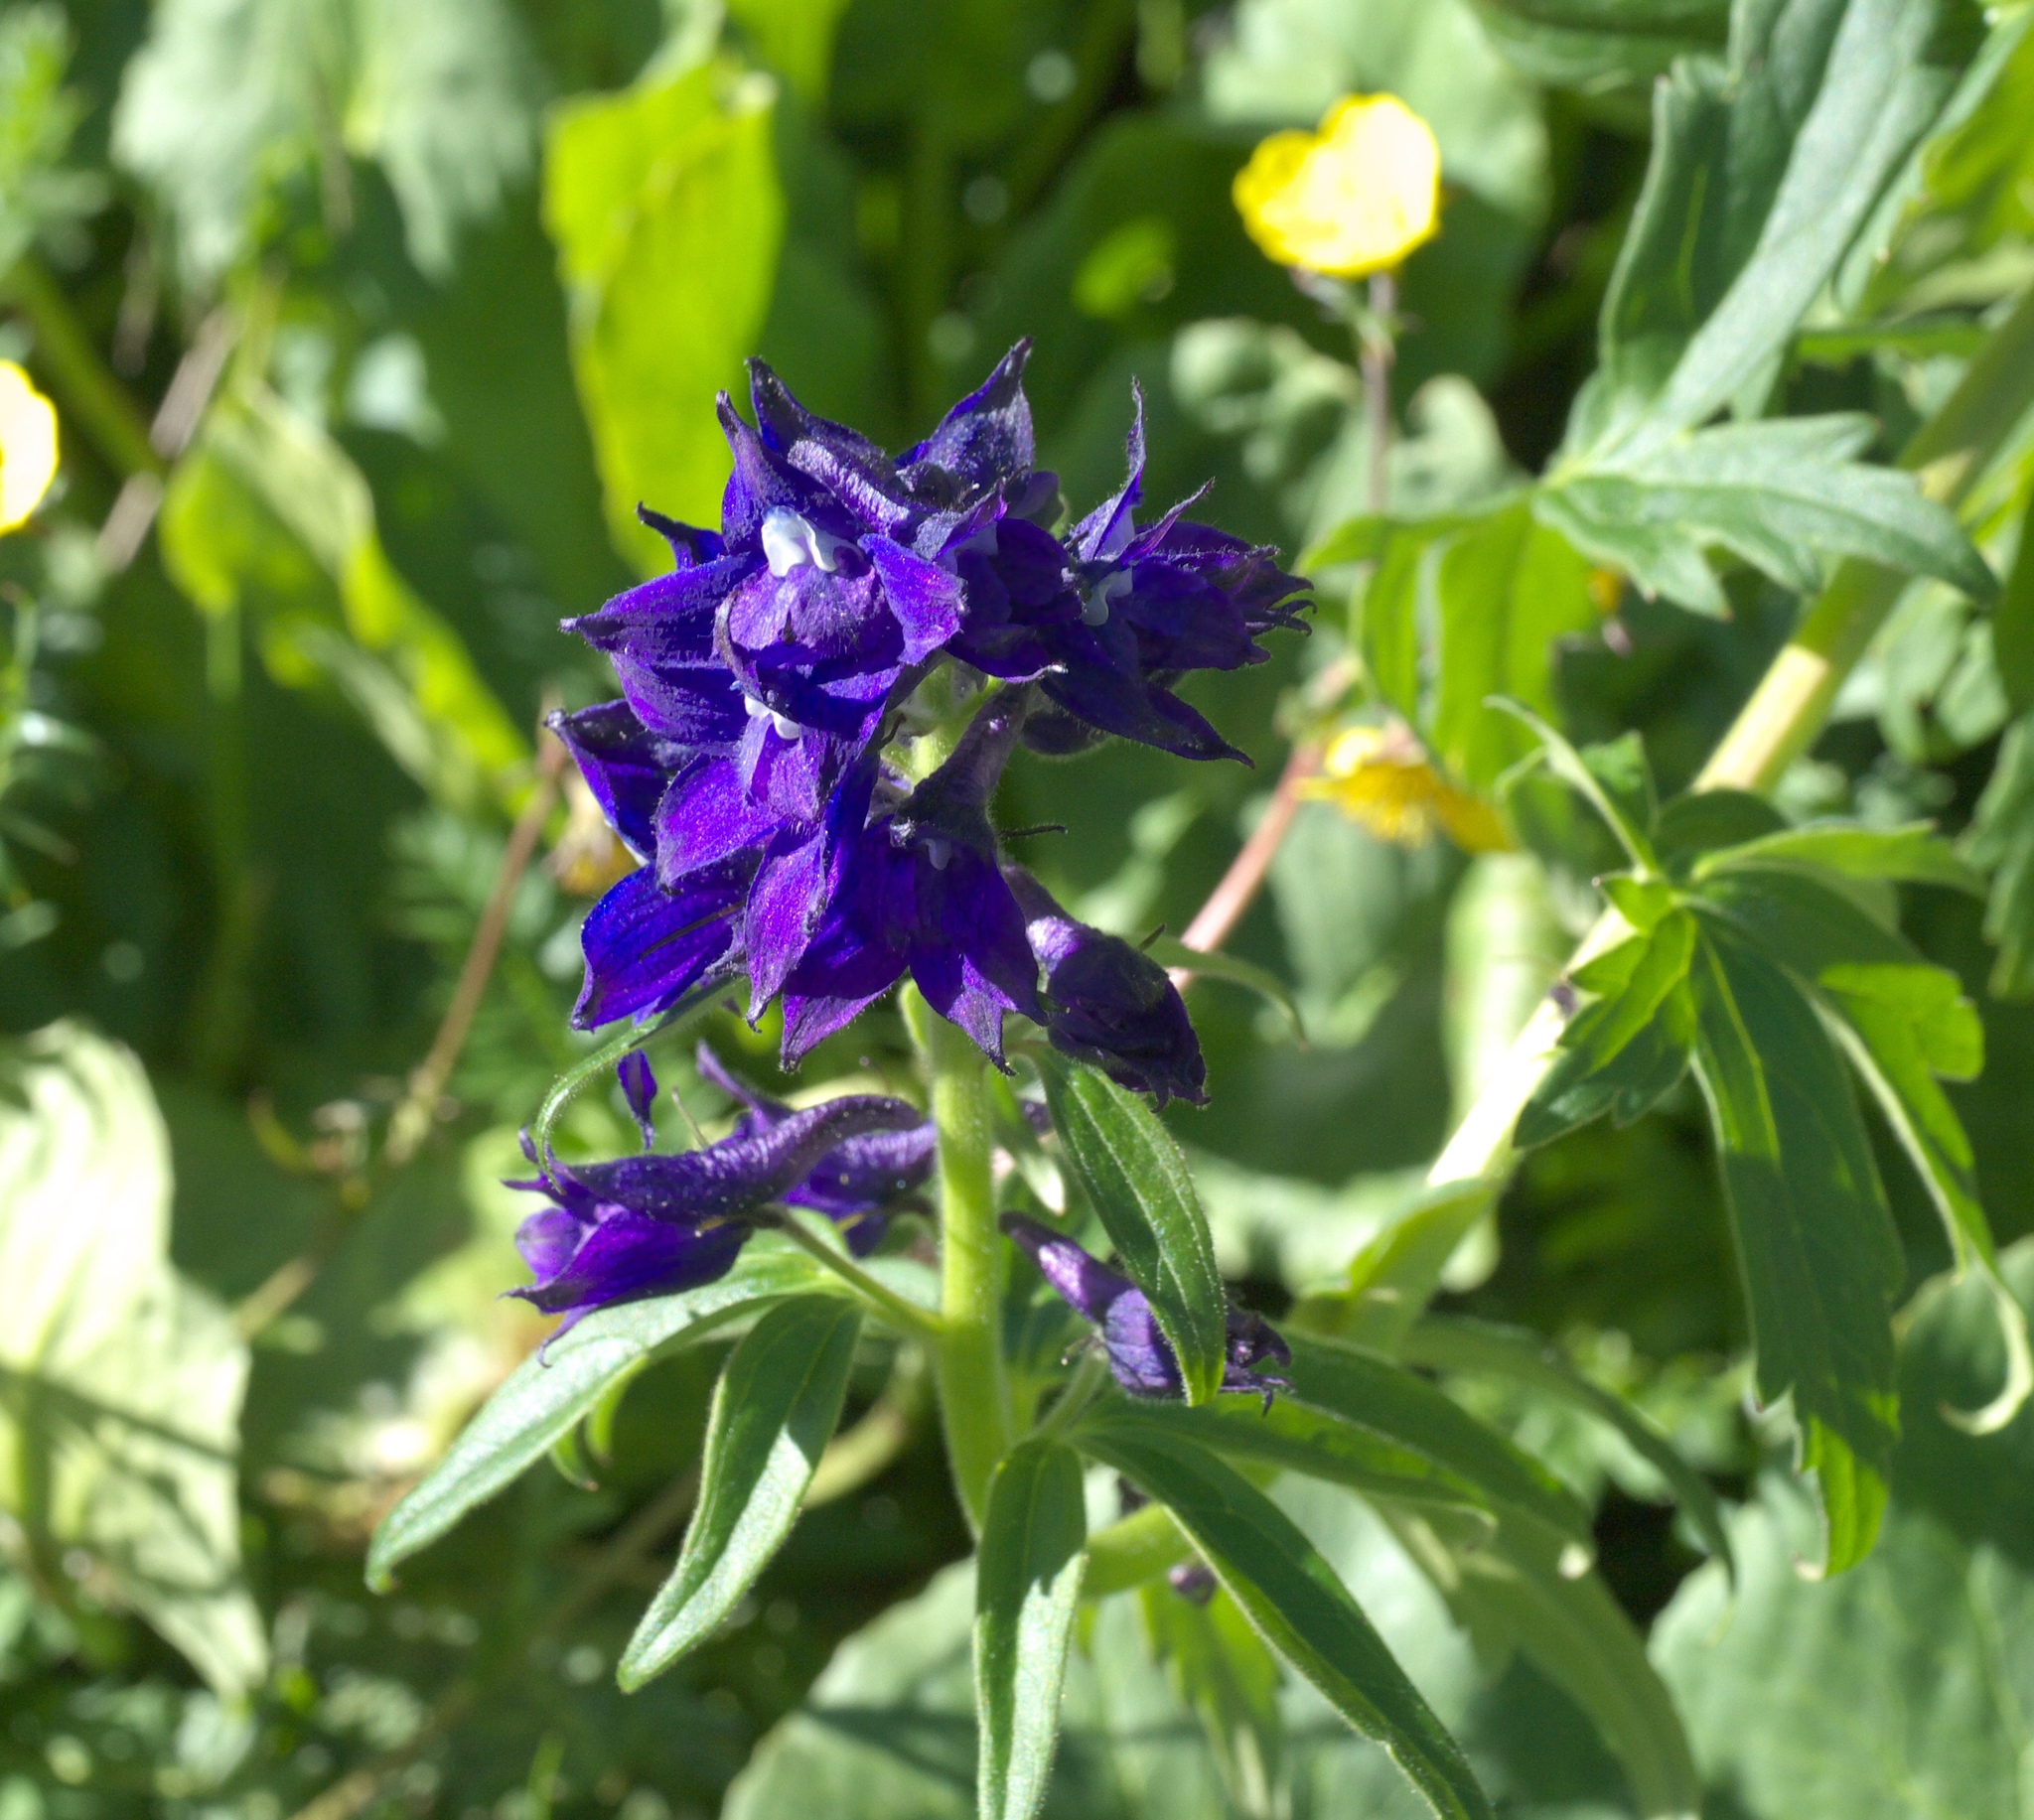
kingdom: Plantae
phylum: Tracheophyta
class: Magnoliopsida
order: Ranunculales
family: Ranunculaceae
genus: Delphinium
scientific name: Delphinium barbeyi
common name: Subalpine larkspur
